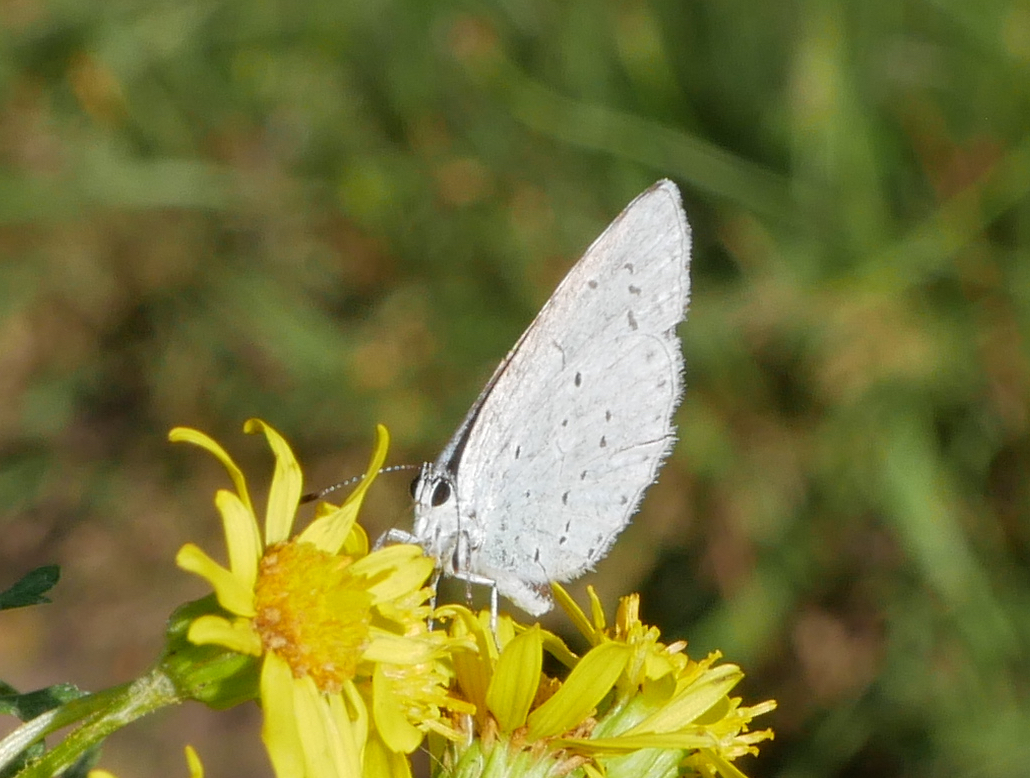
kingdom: Animalia
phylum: Arthropoda
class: Insecta
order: Lepidoptera
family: Lycaenidae
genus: Celastrina
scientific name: Celastrina argiolus
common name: Holly blue
